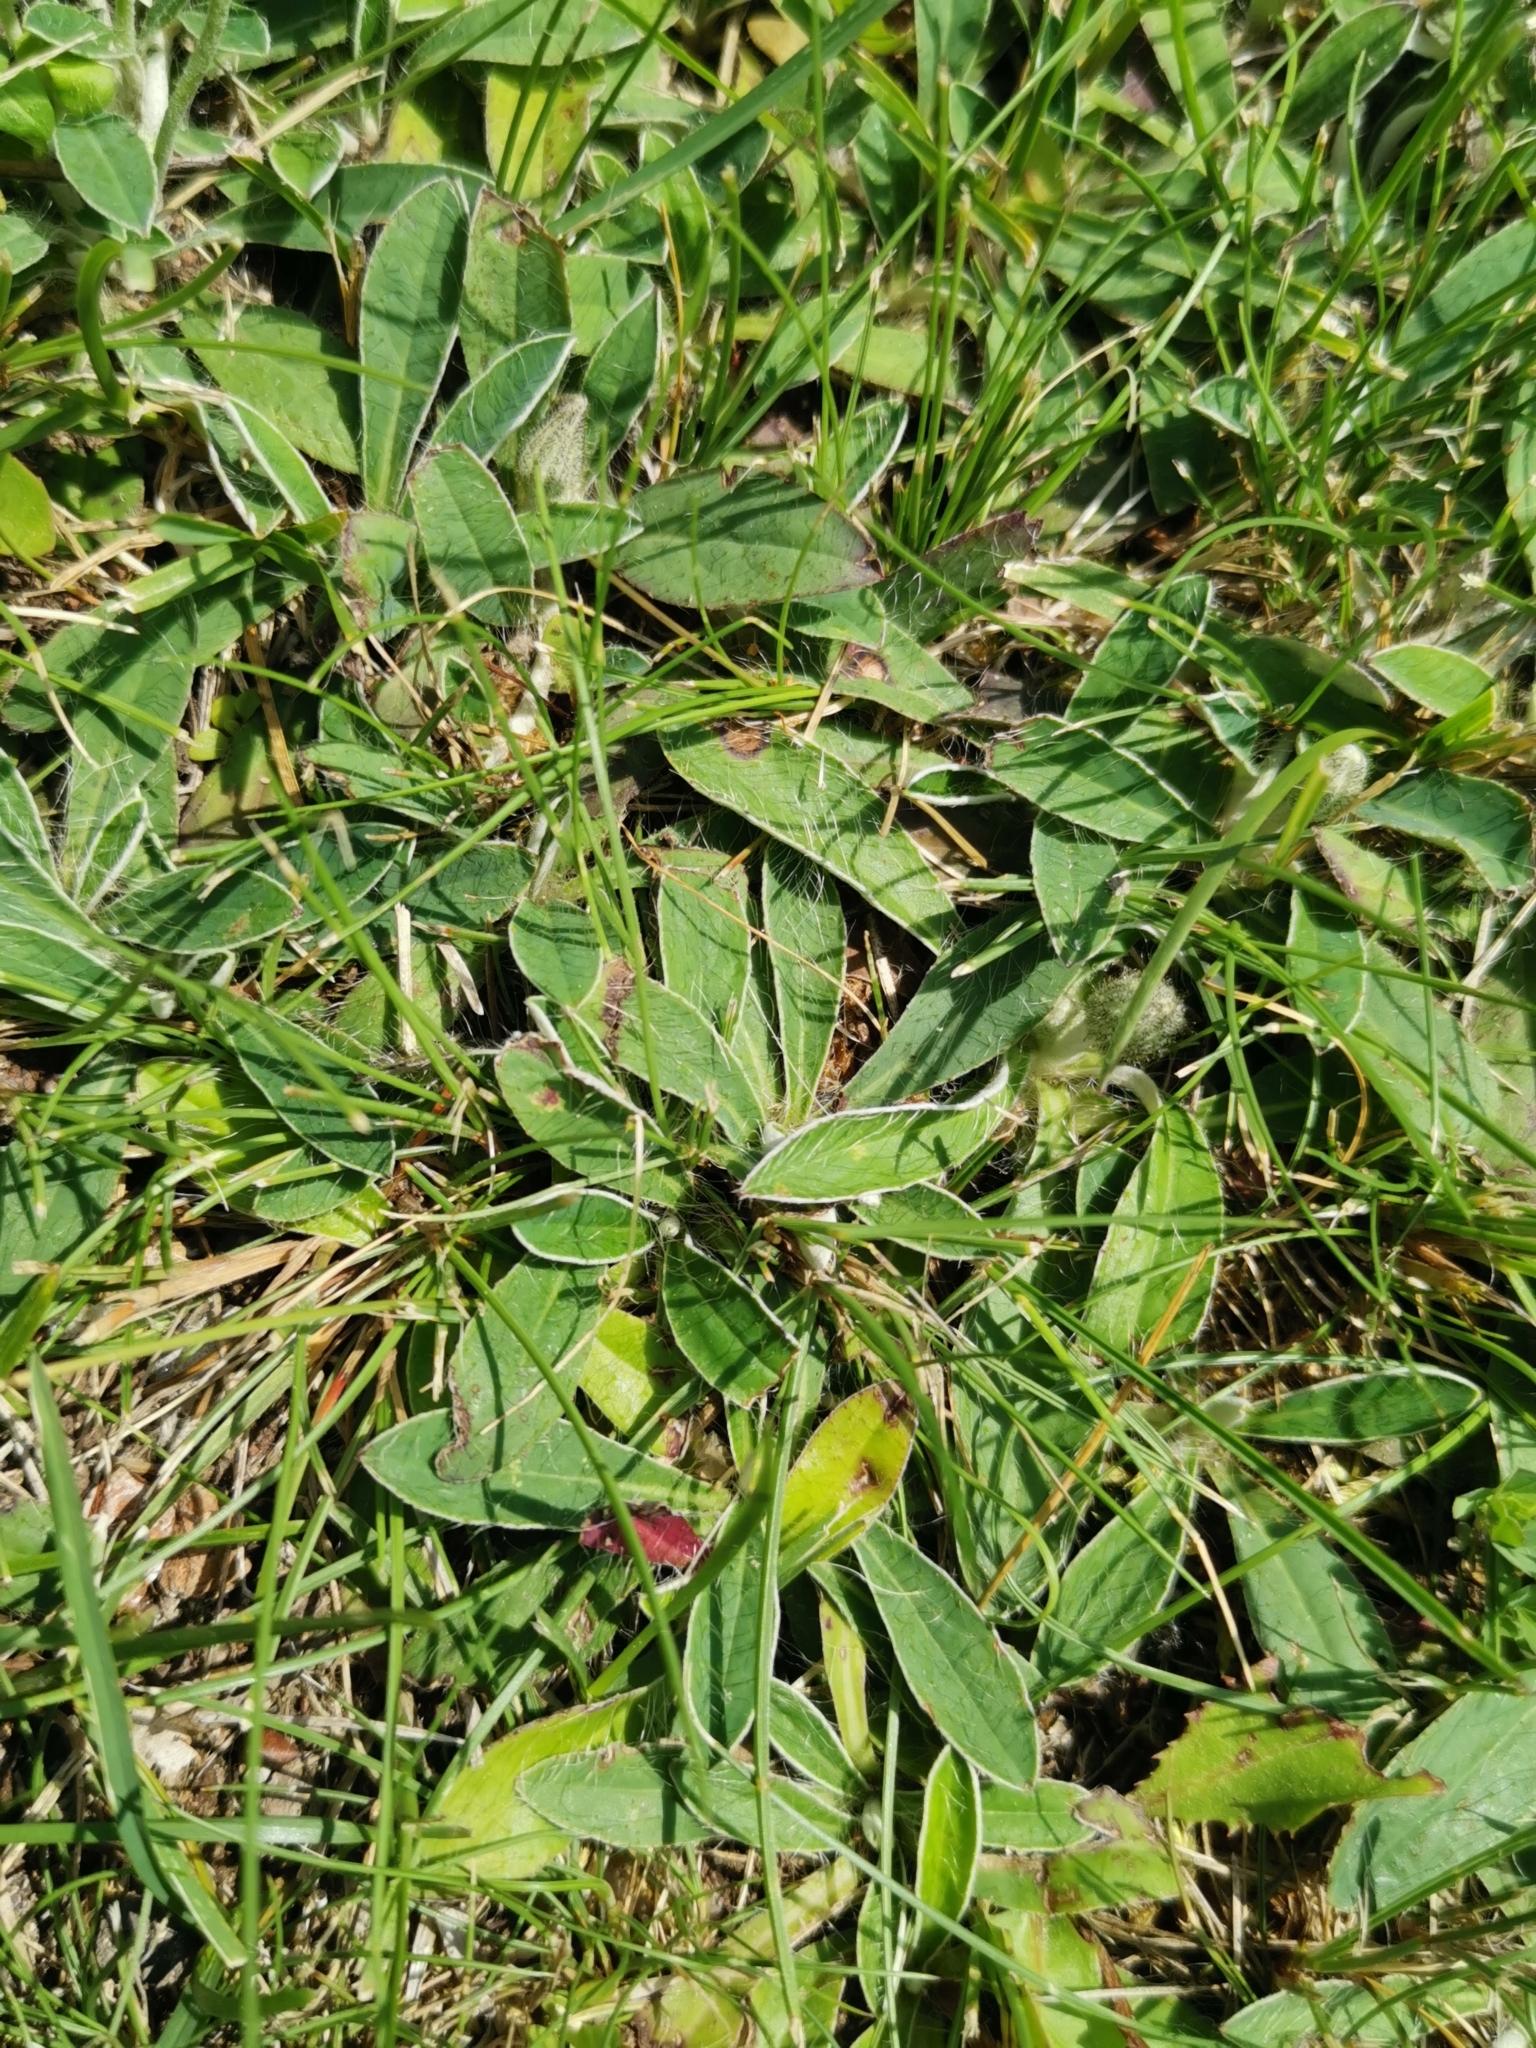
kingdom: Plantae
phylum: Tracheophyta
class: Magnoliopsida
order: Asterales
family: Asteraceae
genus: Pilosella
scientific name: Pilosella officinarum
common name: Mouse-ear hawkweed
